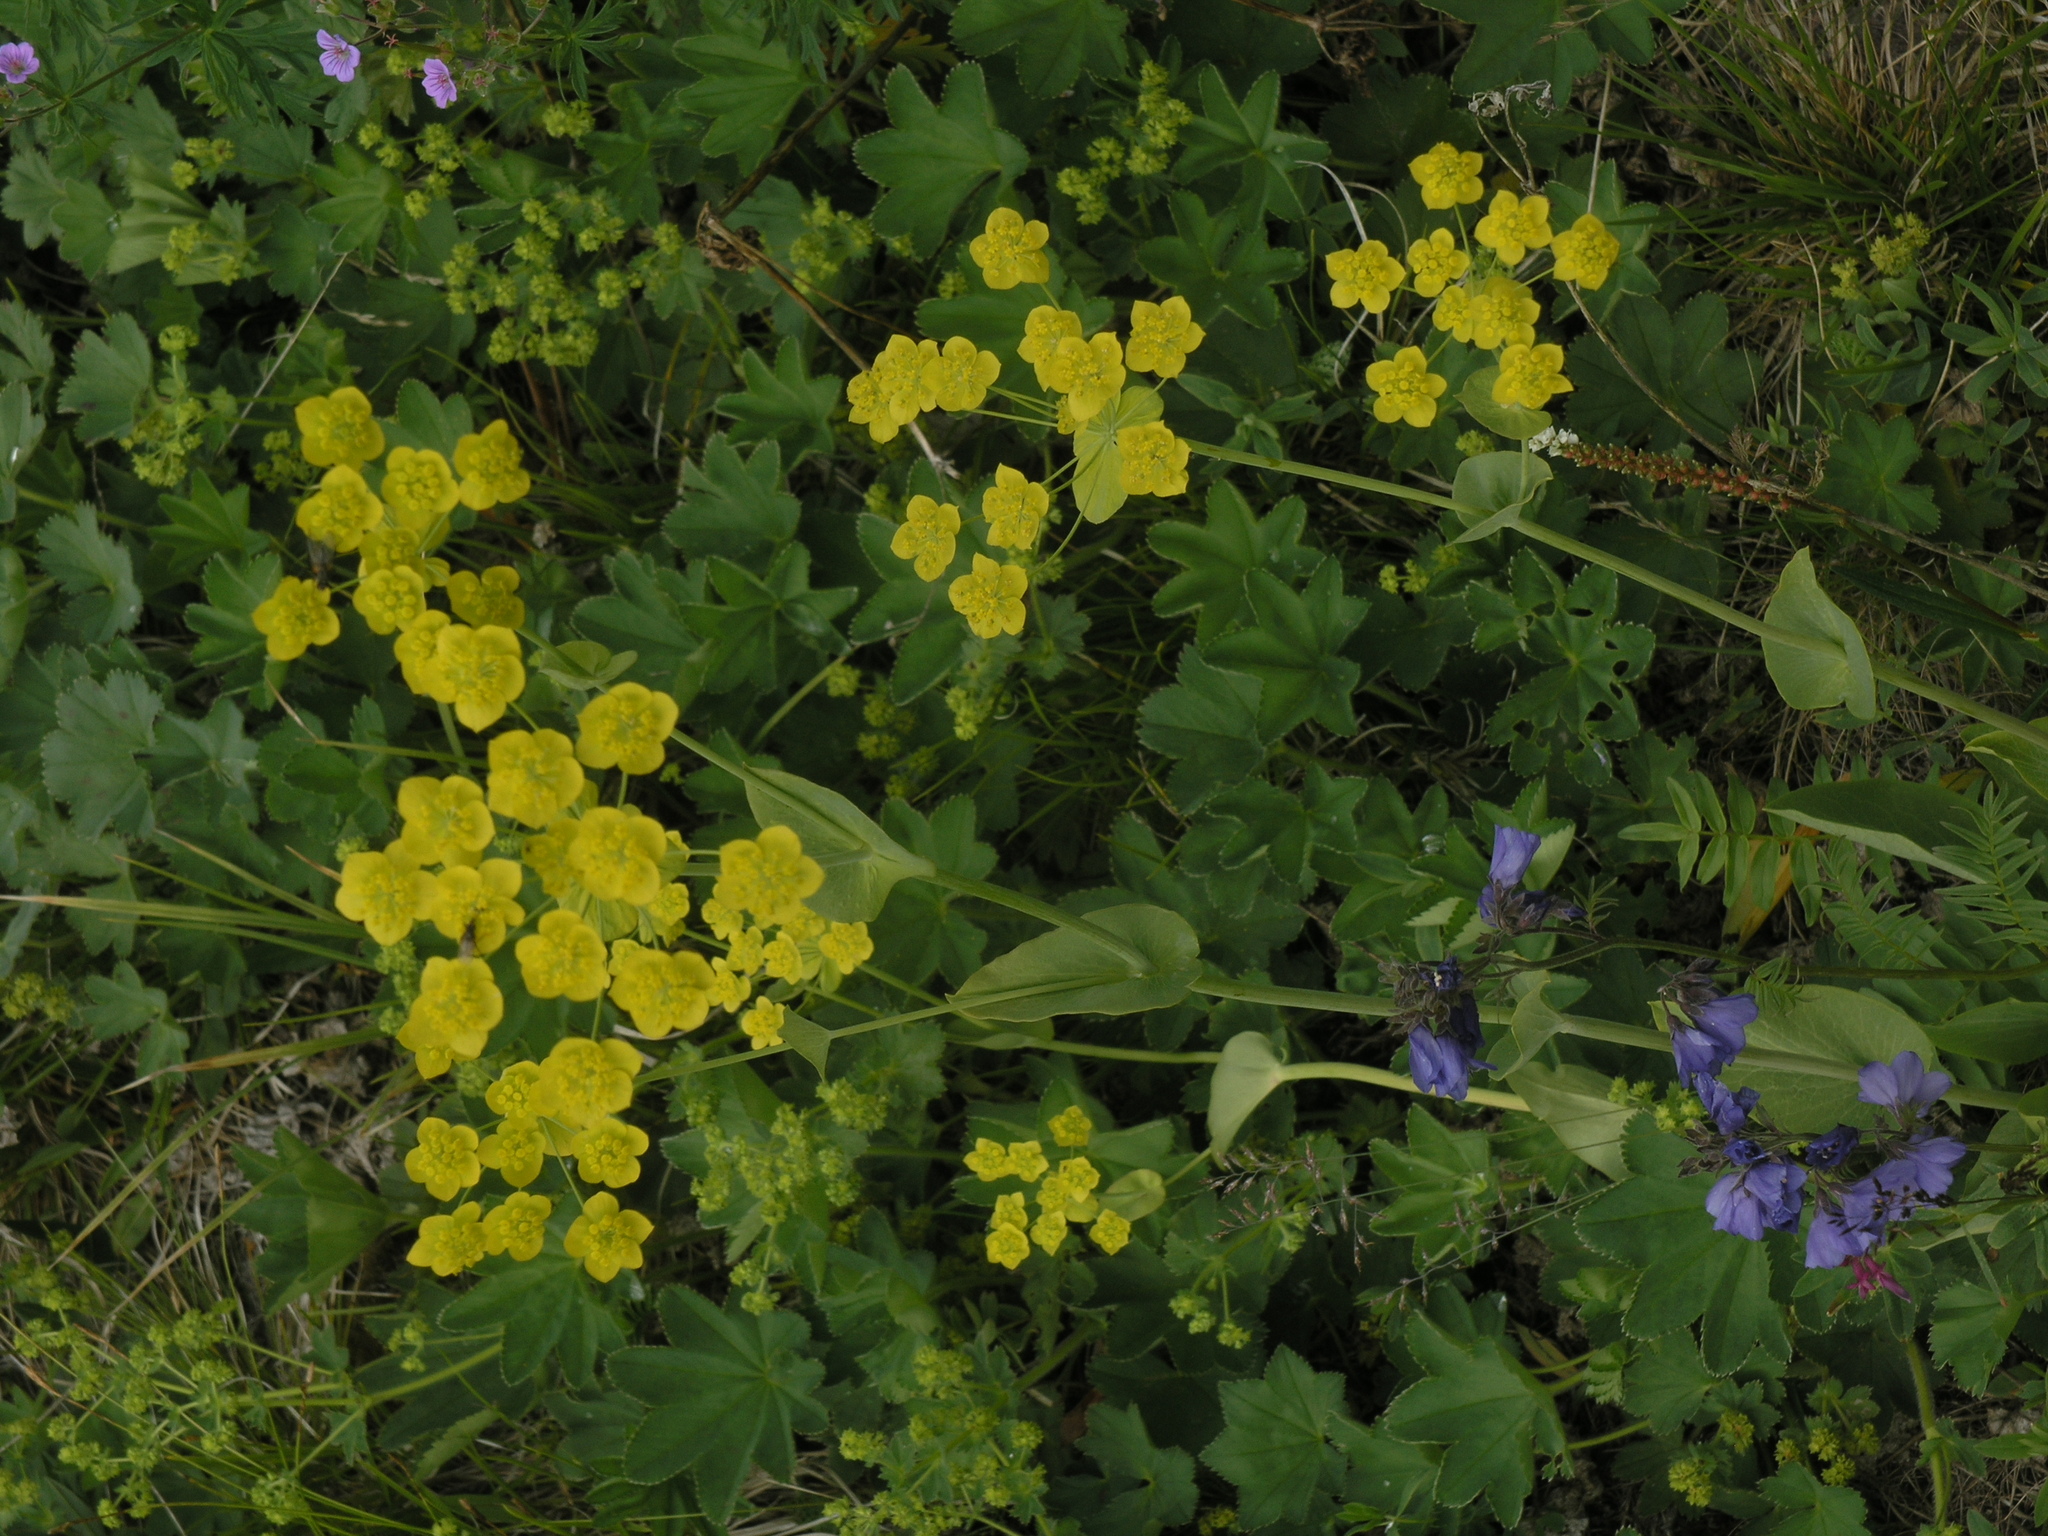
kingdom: Plantae
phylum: Tracheophyta
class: Magnoliopsida
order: Apiales
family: Apiaceae
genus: Bupleurum
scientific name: Bupleurum aureum
